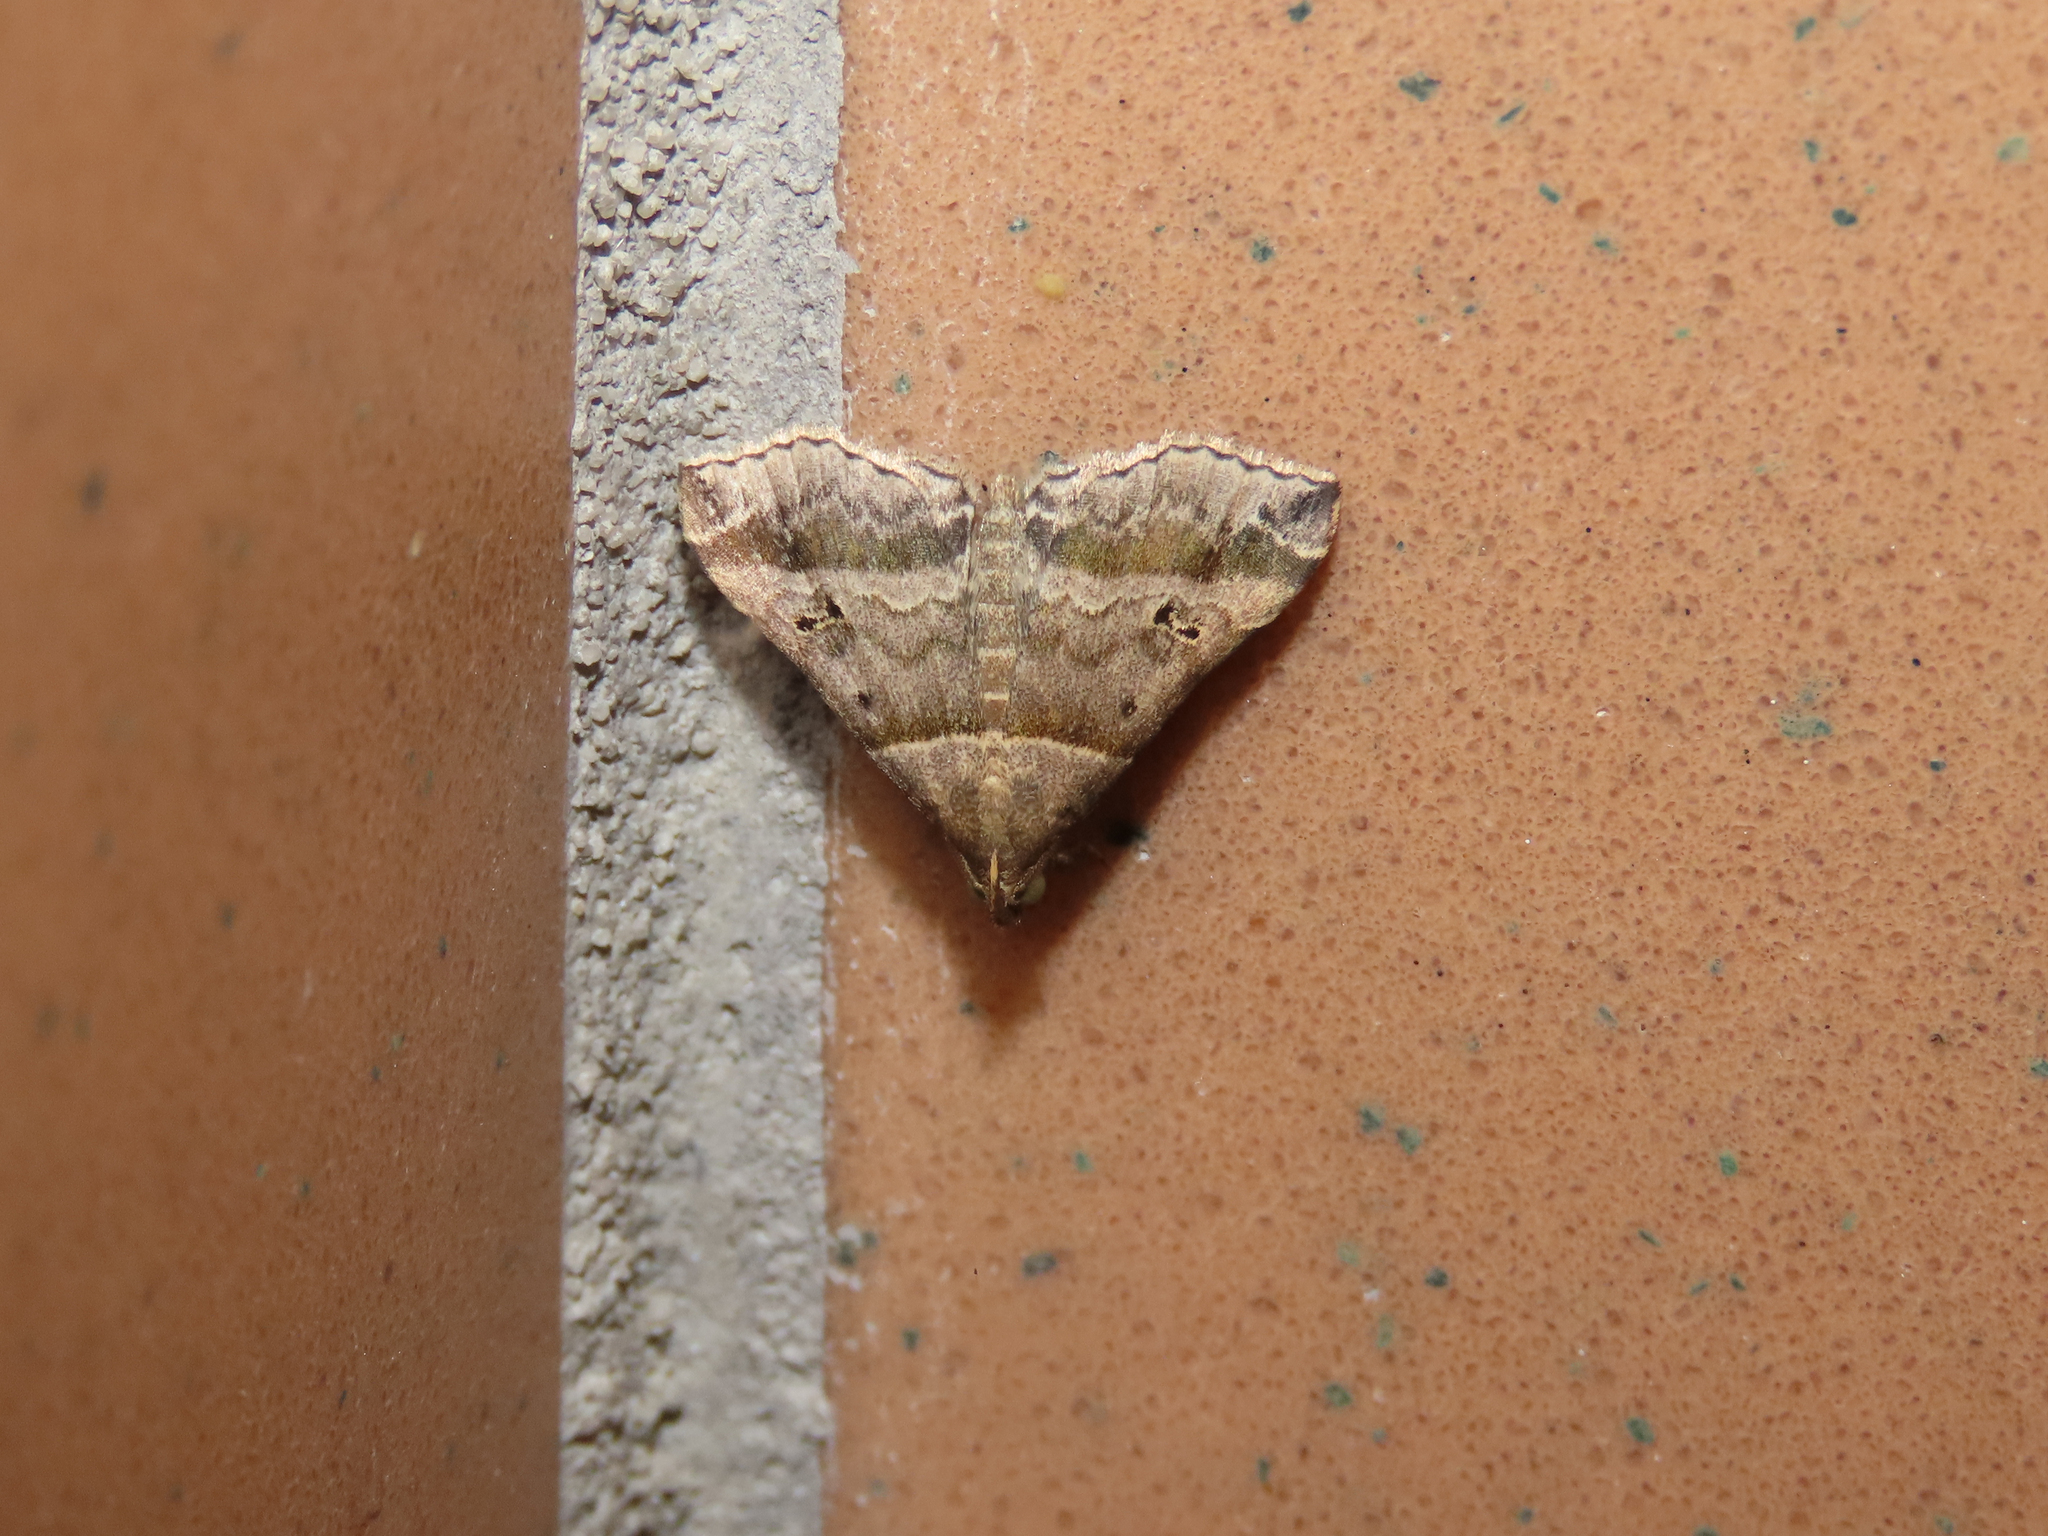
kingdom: Animalia
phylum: Arthropoda
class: Insecta
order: Lepidoptera
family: Erebidae
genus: Phaeolita
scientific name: Phaeolita pyramusalis
